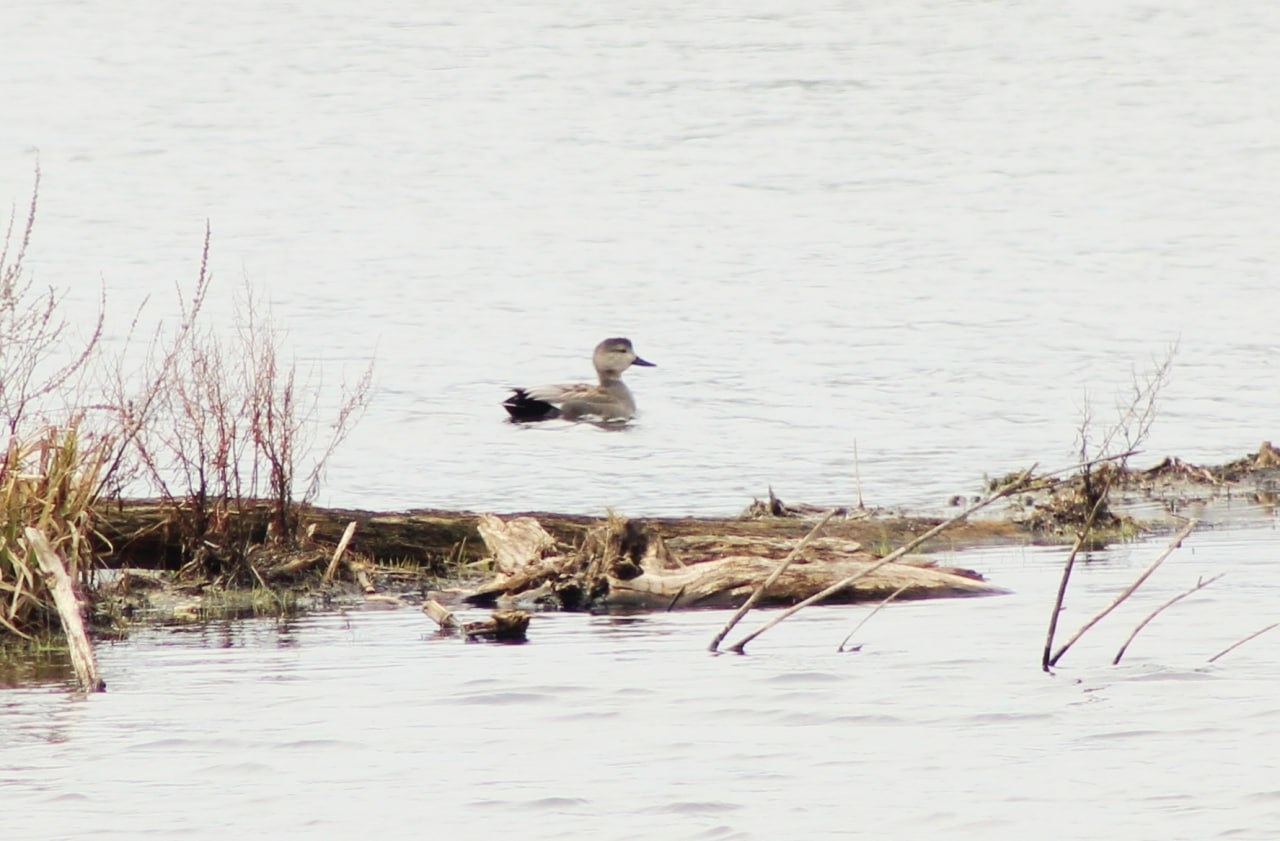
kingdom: Animalia
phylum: Chordata
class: Aves
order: Anseriformes
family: Anatidae
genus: Mareca
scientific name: Mareca strepera
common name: Gadwall
